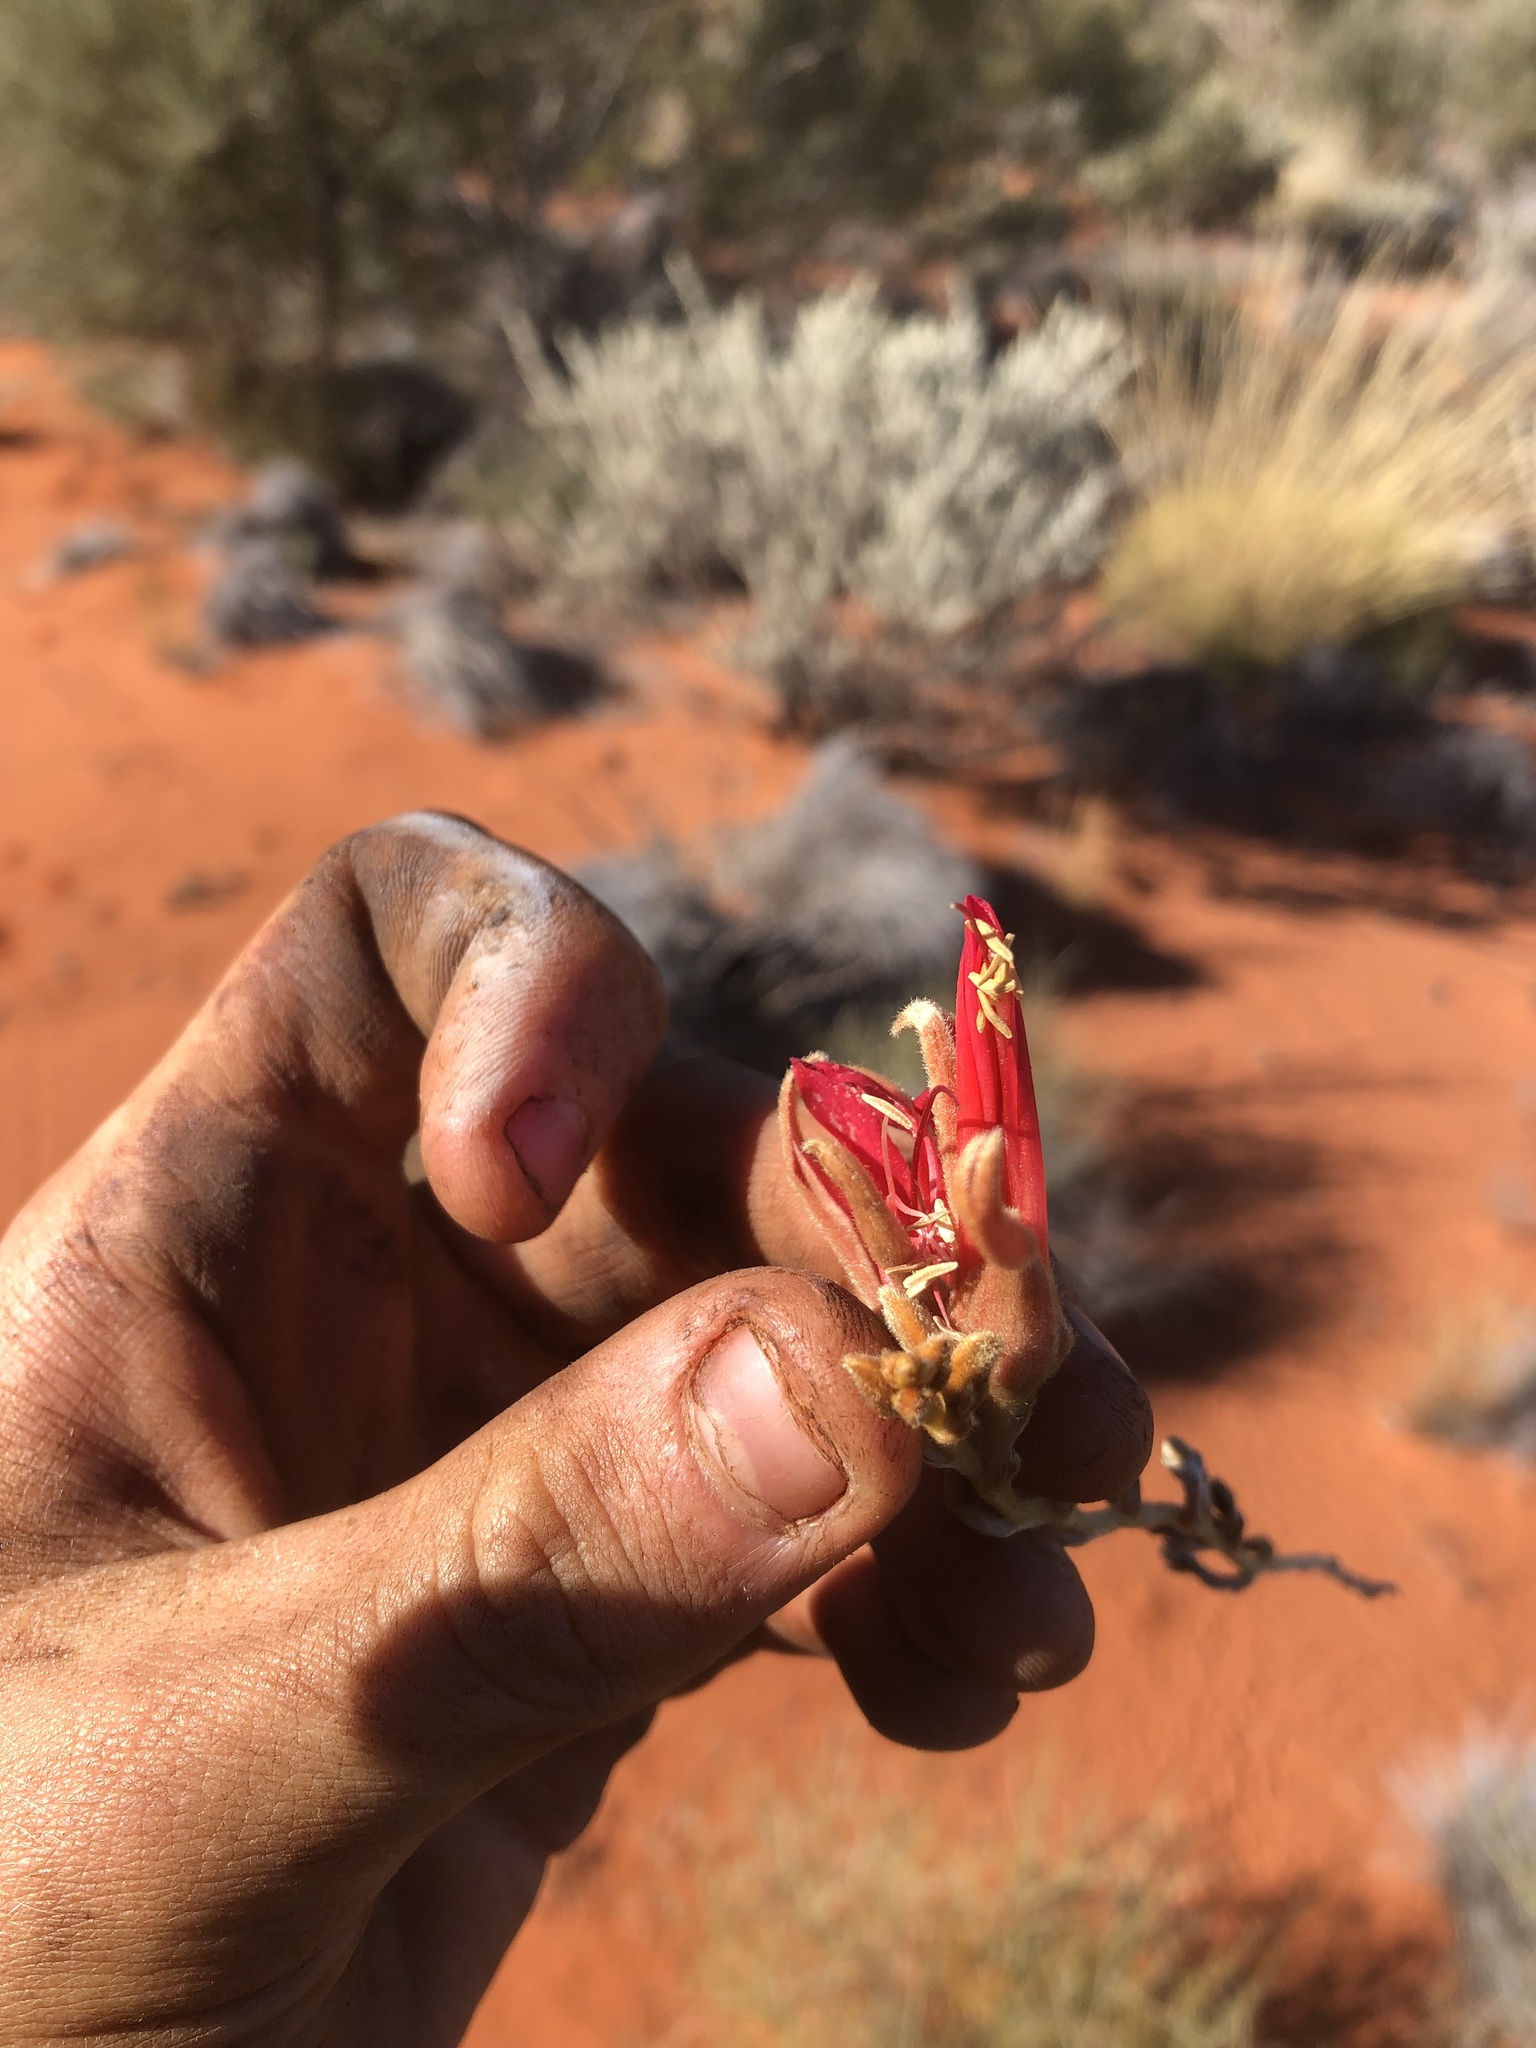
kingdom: Plantae
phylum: Tracheophyta
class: Magnoliopsida
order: Fabales
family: Fabaceae
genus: Leptosema
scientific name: Leptosema chambersii
